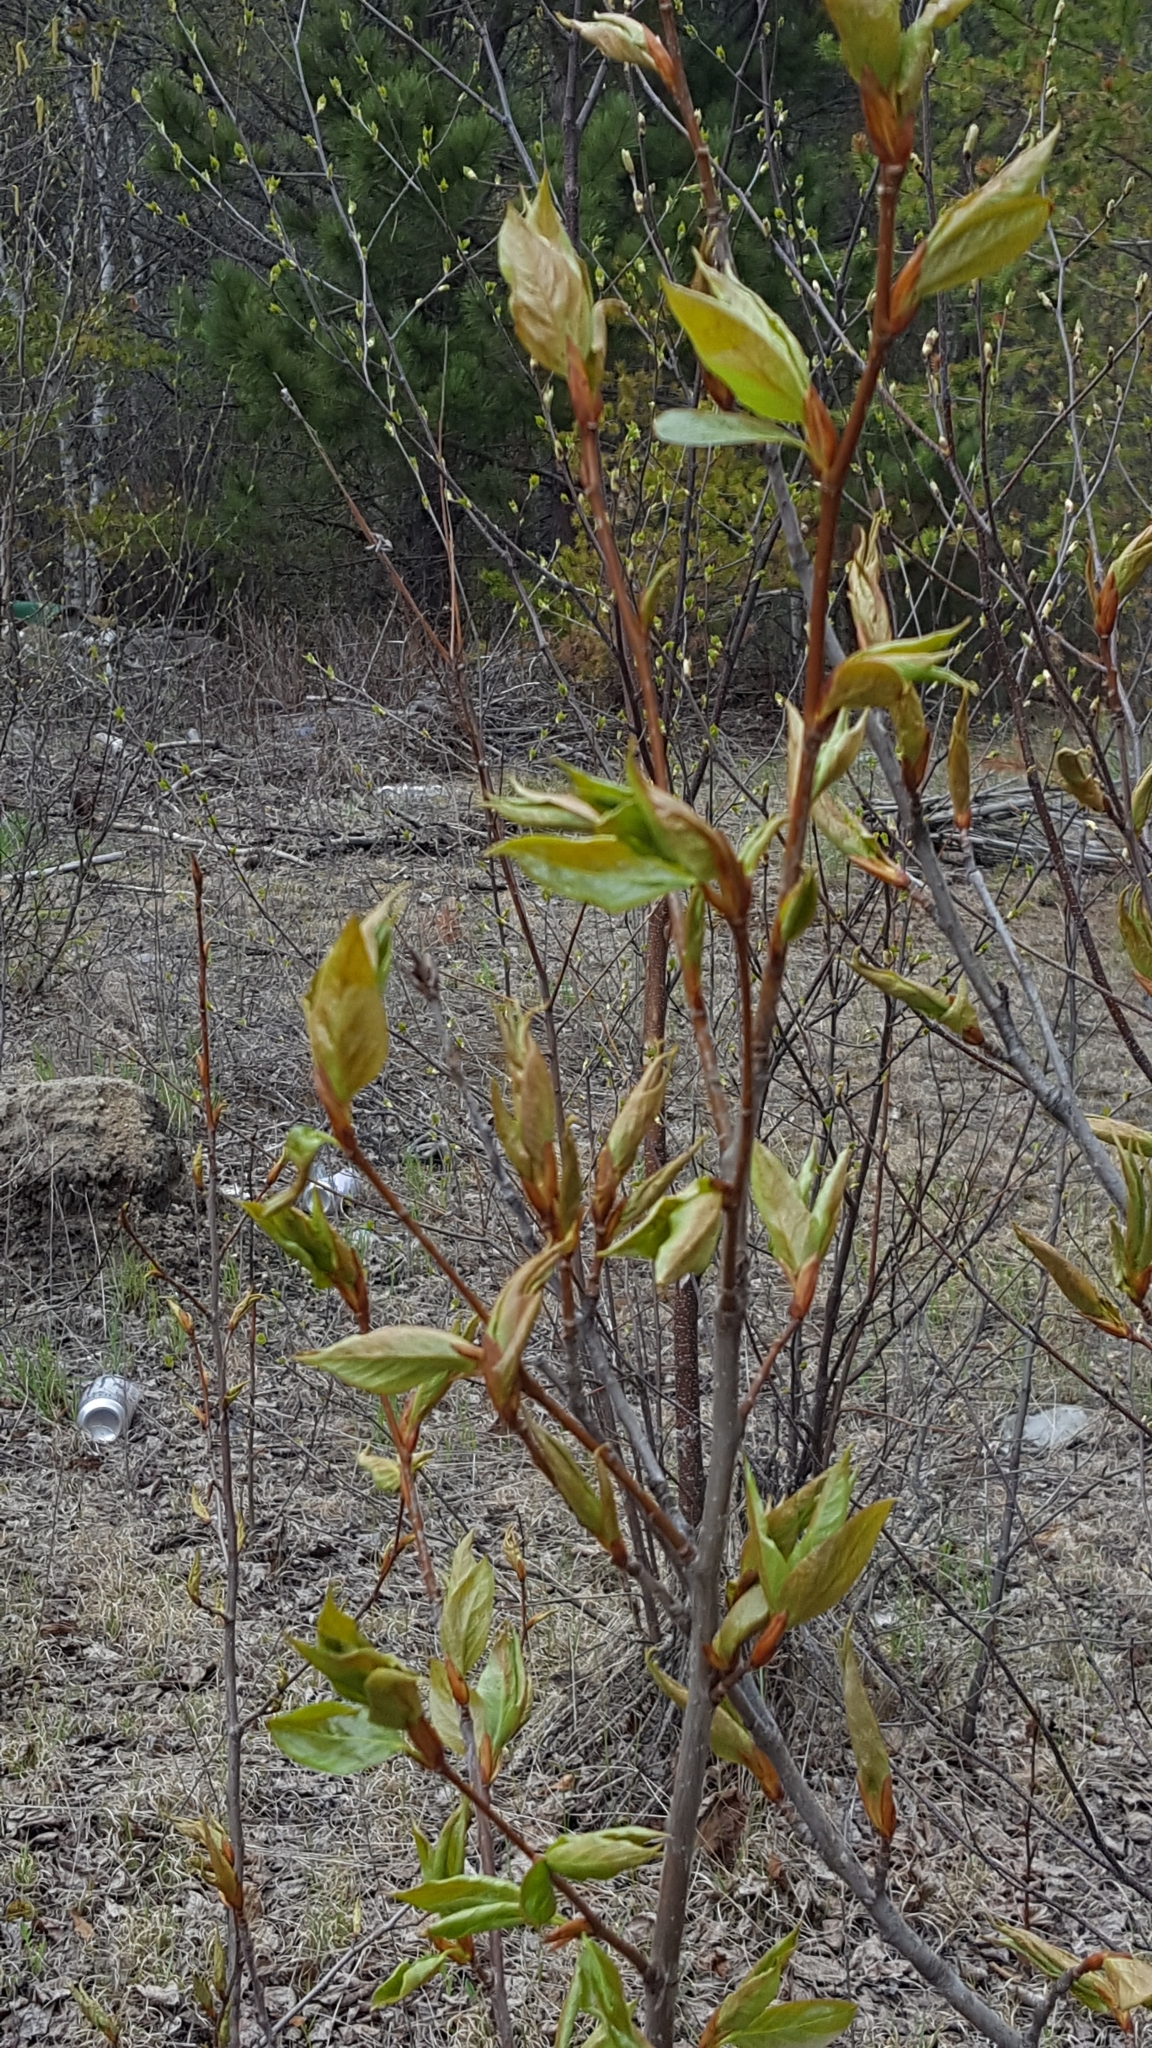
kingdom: Plantae
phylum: Tracheophyta
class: Magnoliopsida
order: Malpighiales
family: Salicaceae
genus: Populus
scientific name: Populus balsamifera
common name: Balsam poplar
